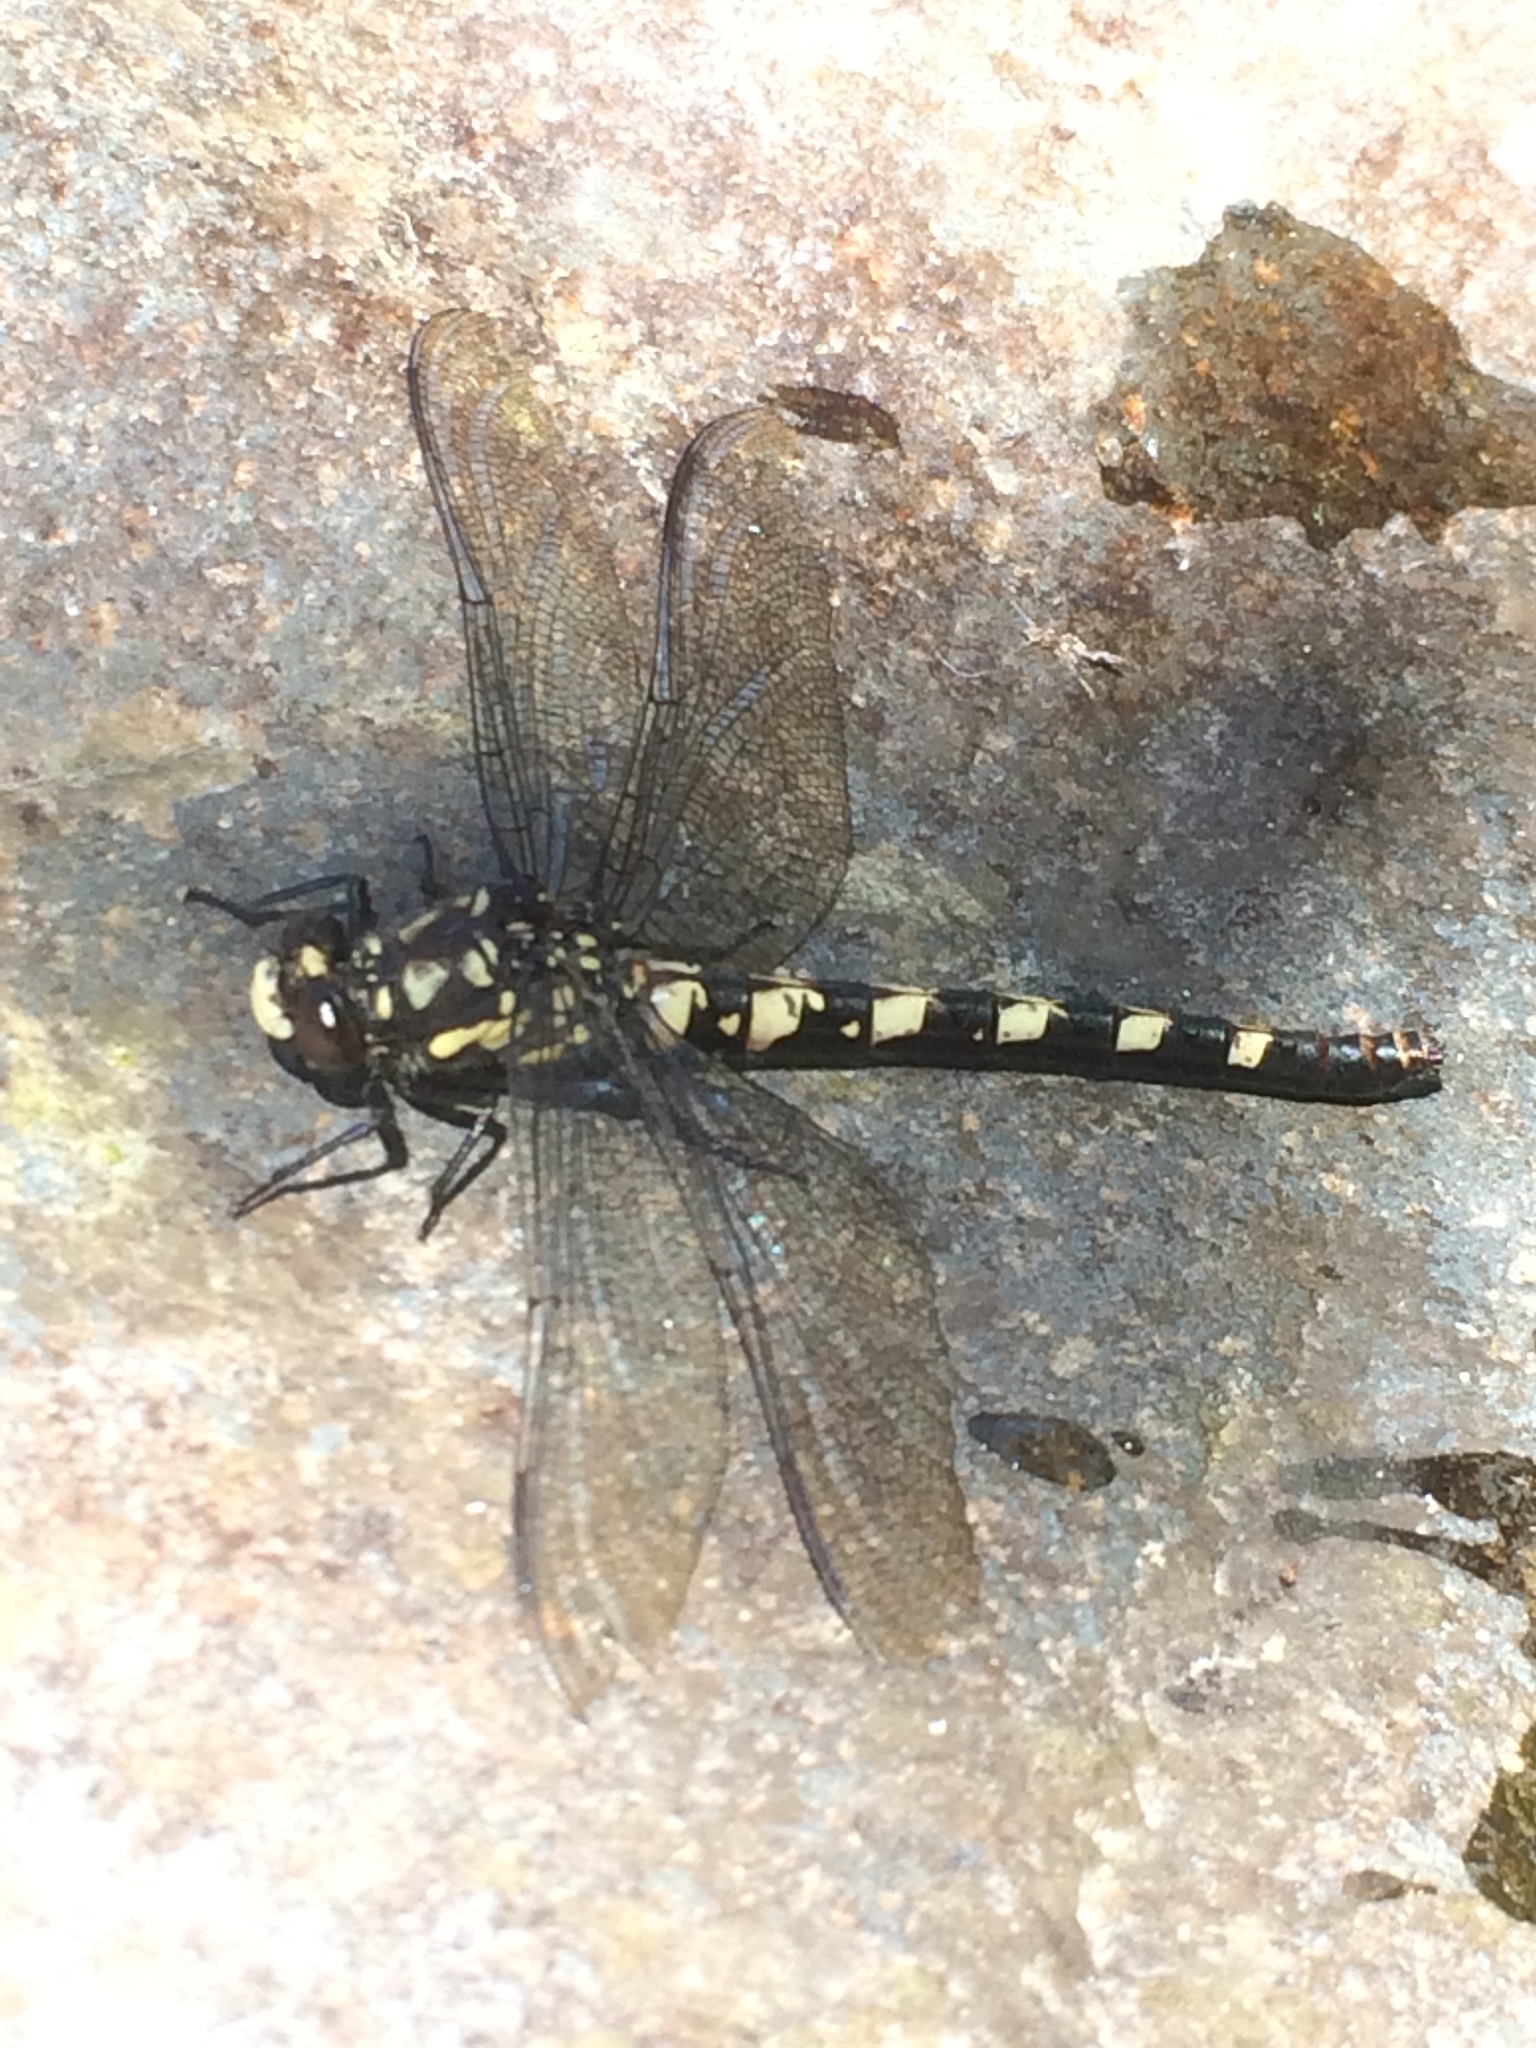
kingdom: Animalia
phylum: Arthropoda
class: Insecta
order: Odonata
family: Petaluridae
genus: Tanypteryx
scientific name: Tanypteryx hageni
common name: Black petaltail
